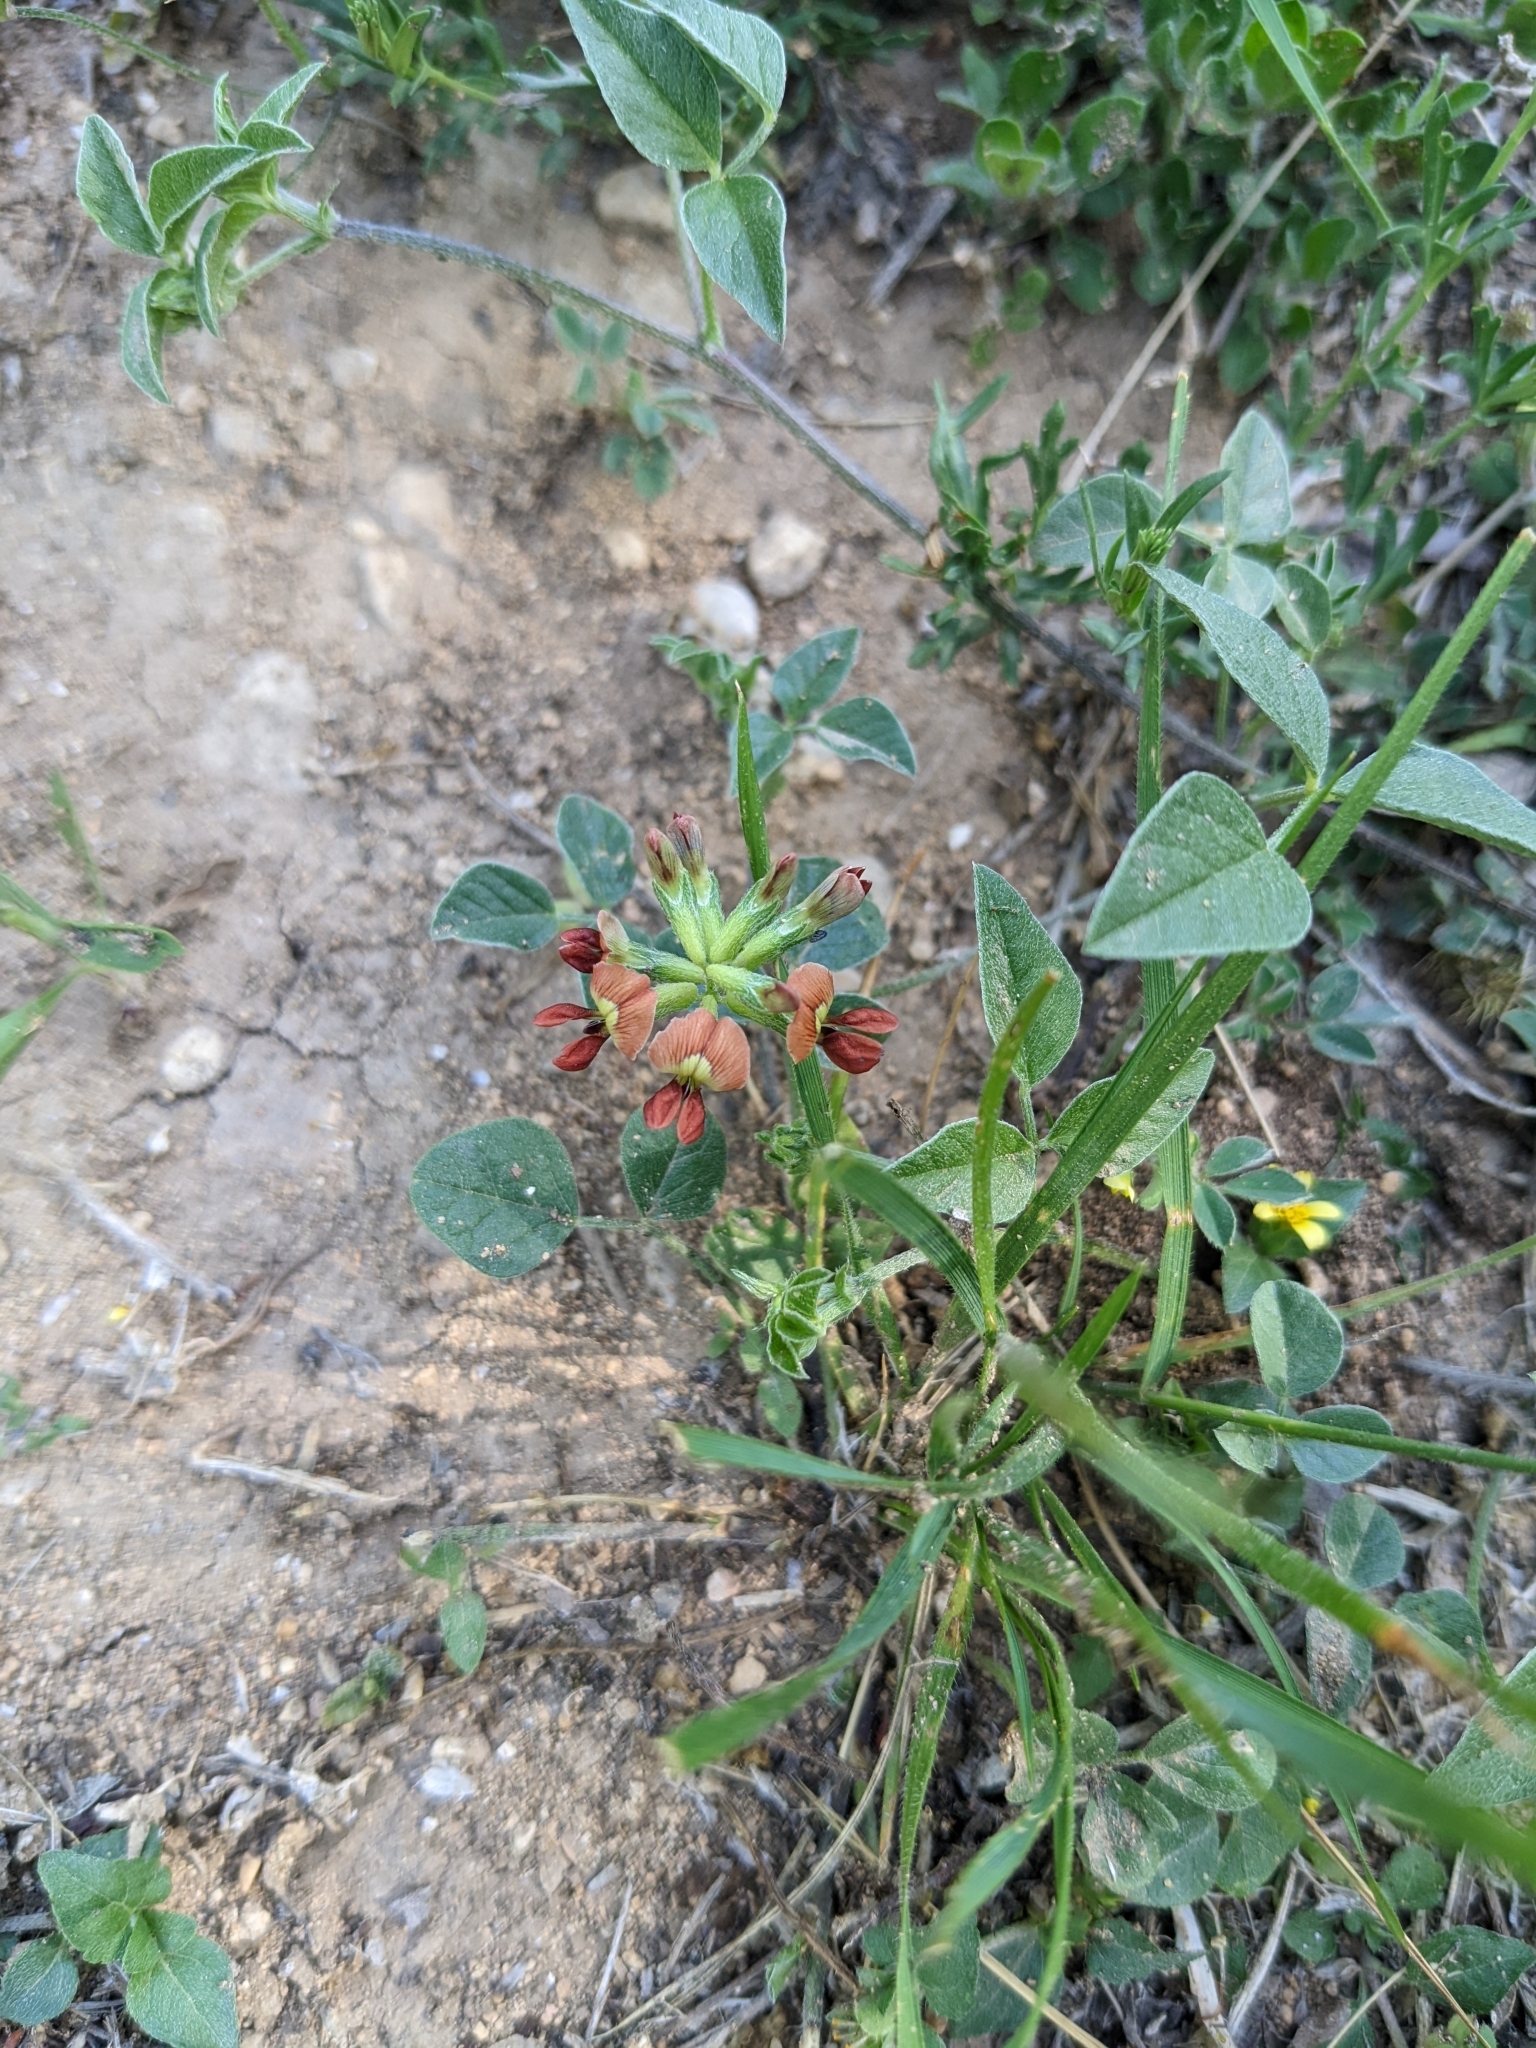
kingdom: Plantae
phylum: Tracheophyta
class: Magnoliopsida
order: Fabales
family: Fabaceae
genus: Pediomelum
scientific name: Pediomelum rhombifolium
